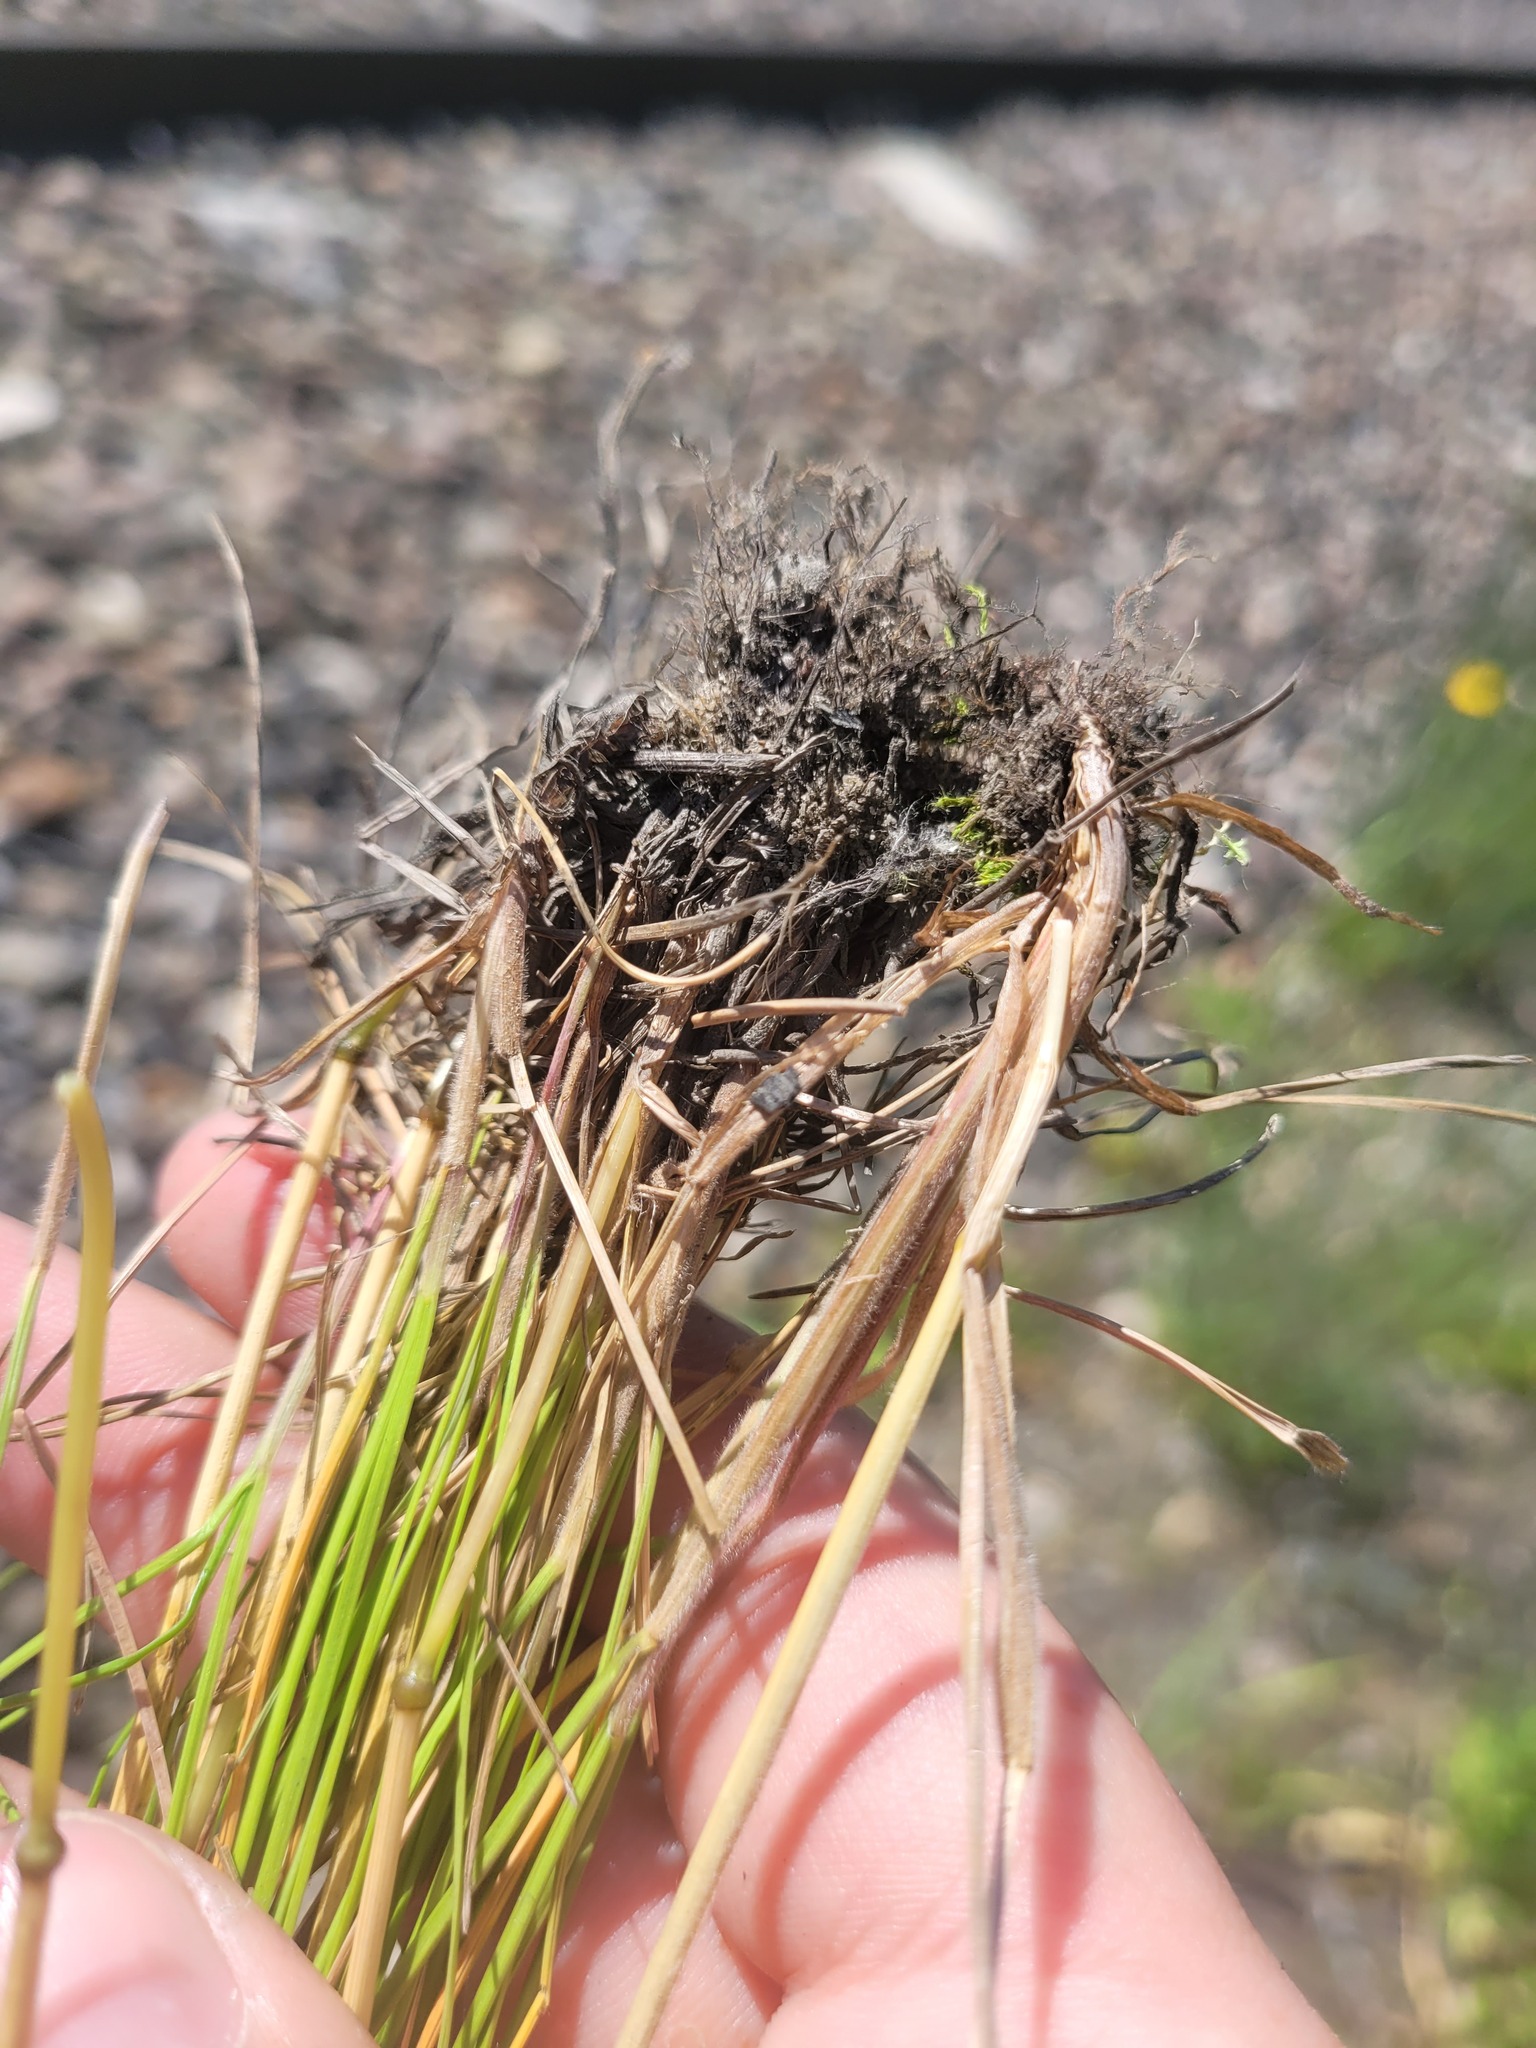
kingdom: Plantae
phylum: Tracheophyta
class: Liliopsida
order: Poales
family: Poaceae
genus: Festuca
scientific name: Festuca rubra
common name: Red fescue
